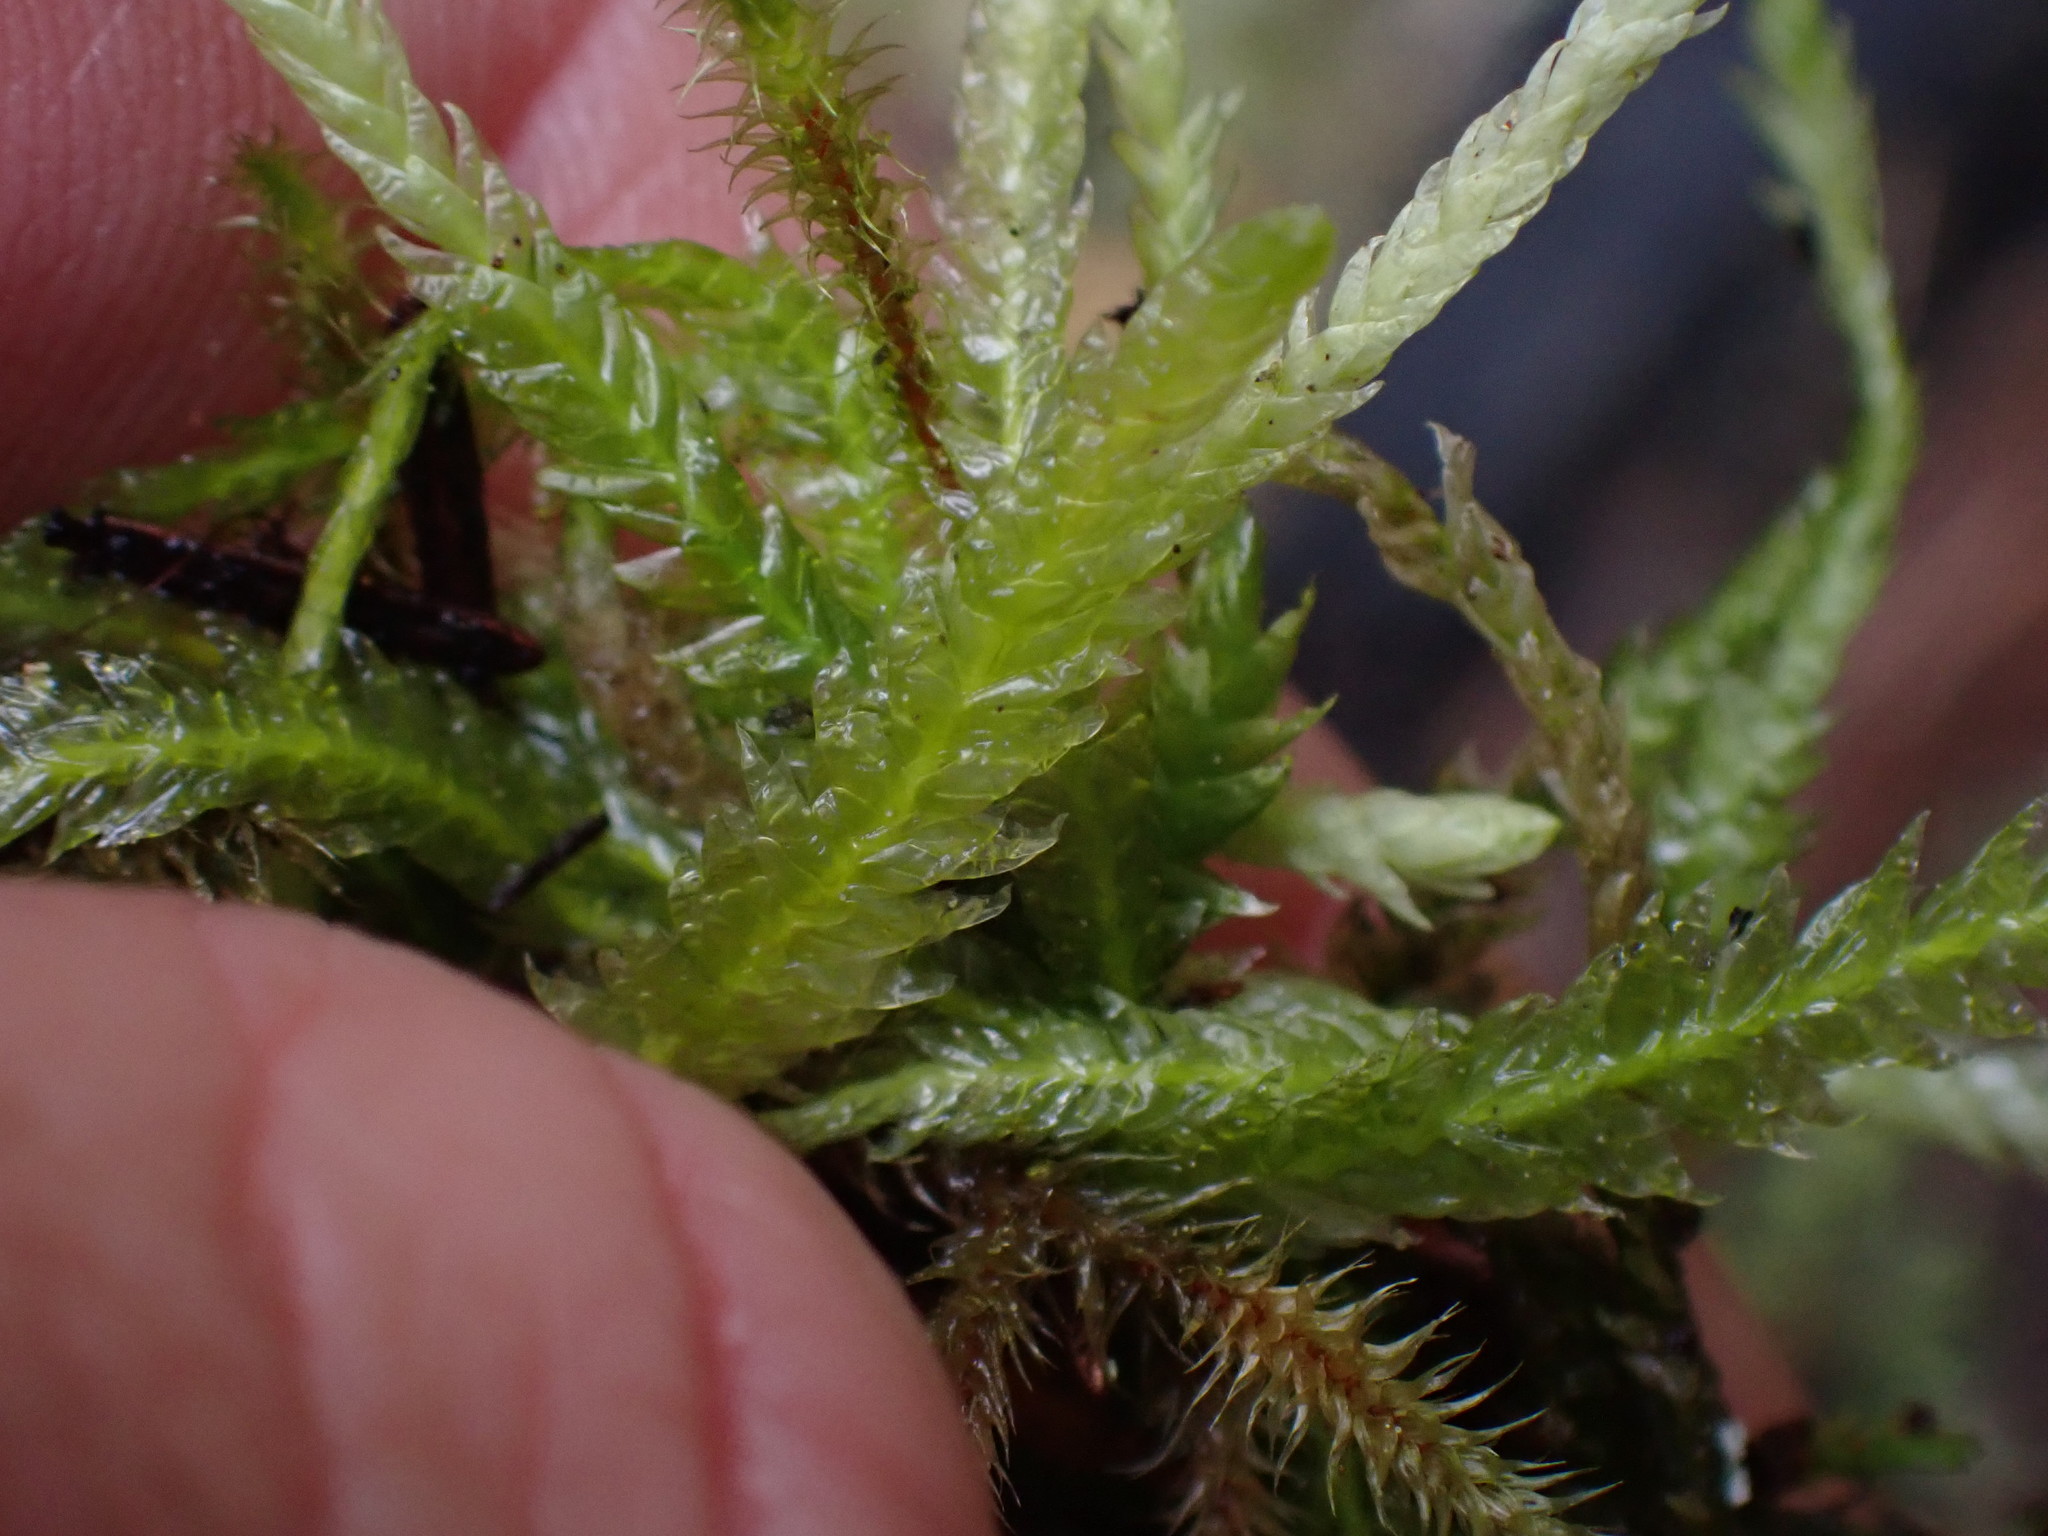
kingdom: Plantae
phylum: Bryophyta
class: Bryopsida
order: Hypnales
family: Plagiotheciaceae
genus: Plagiothecium
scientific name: Plagiothecium undulatum
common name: Waved silk-moss
